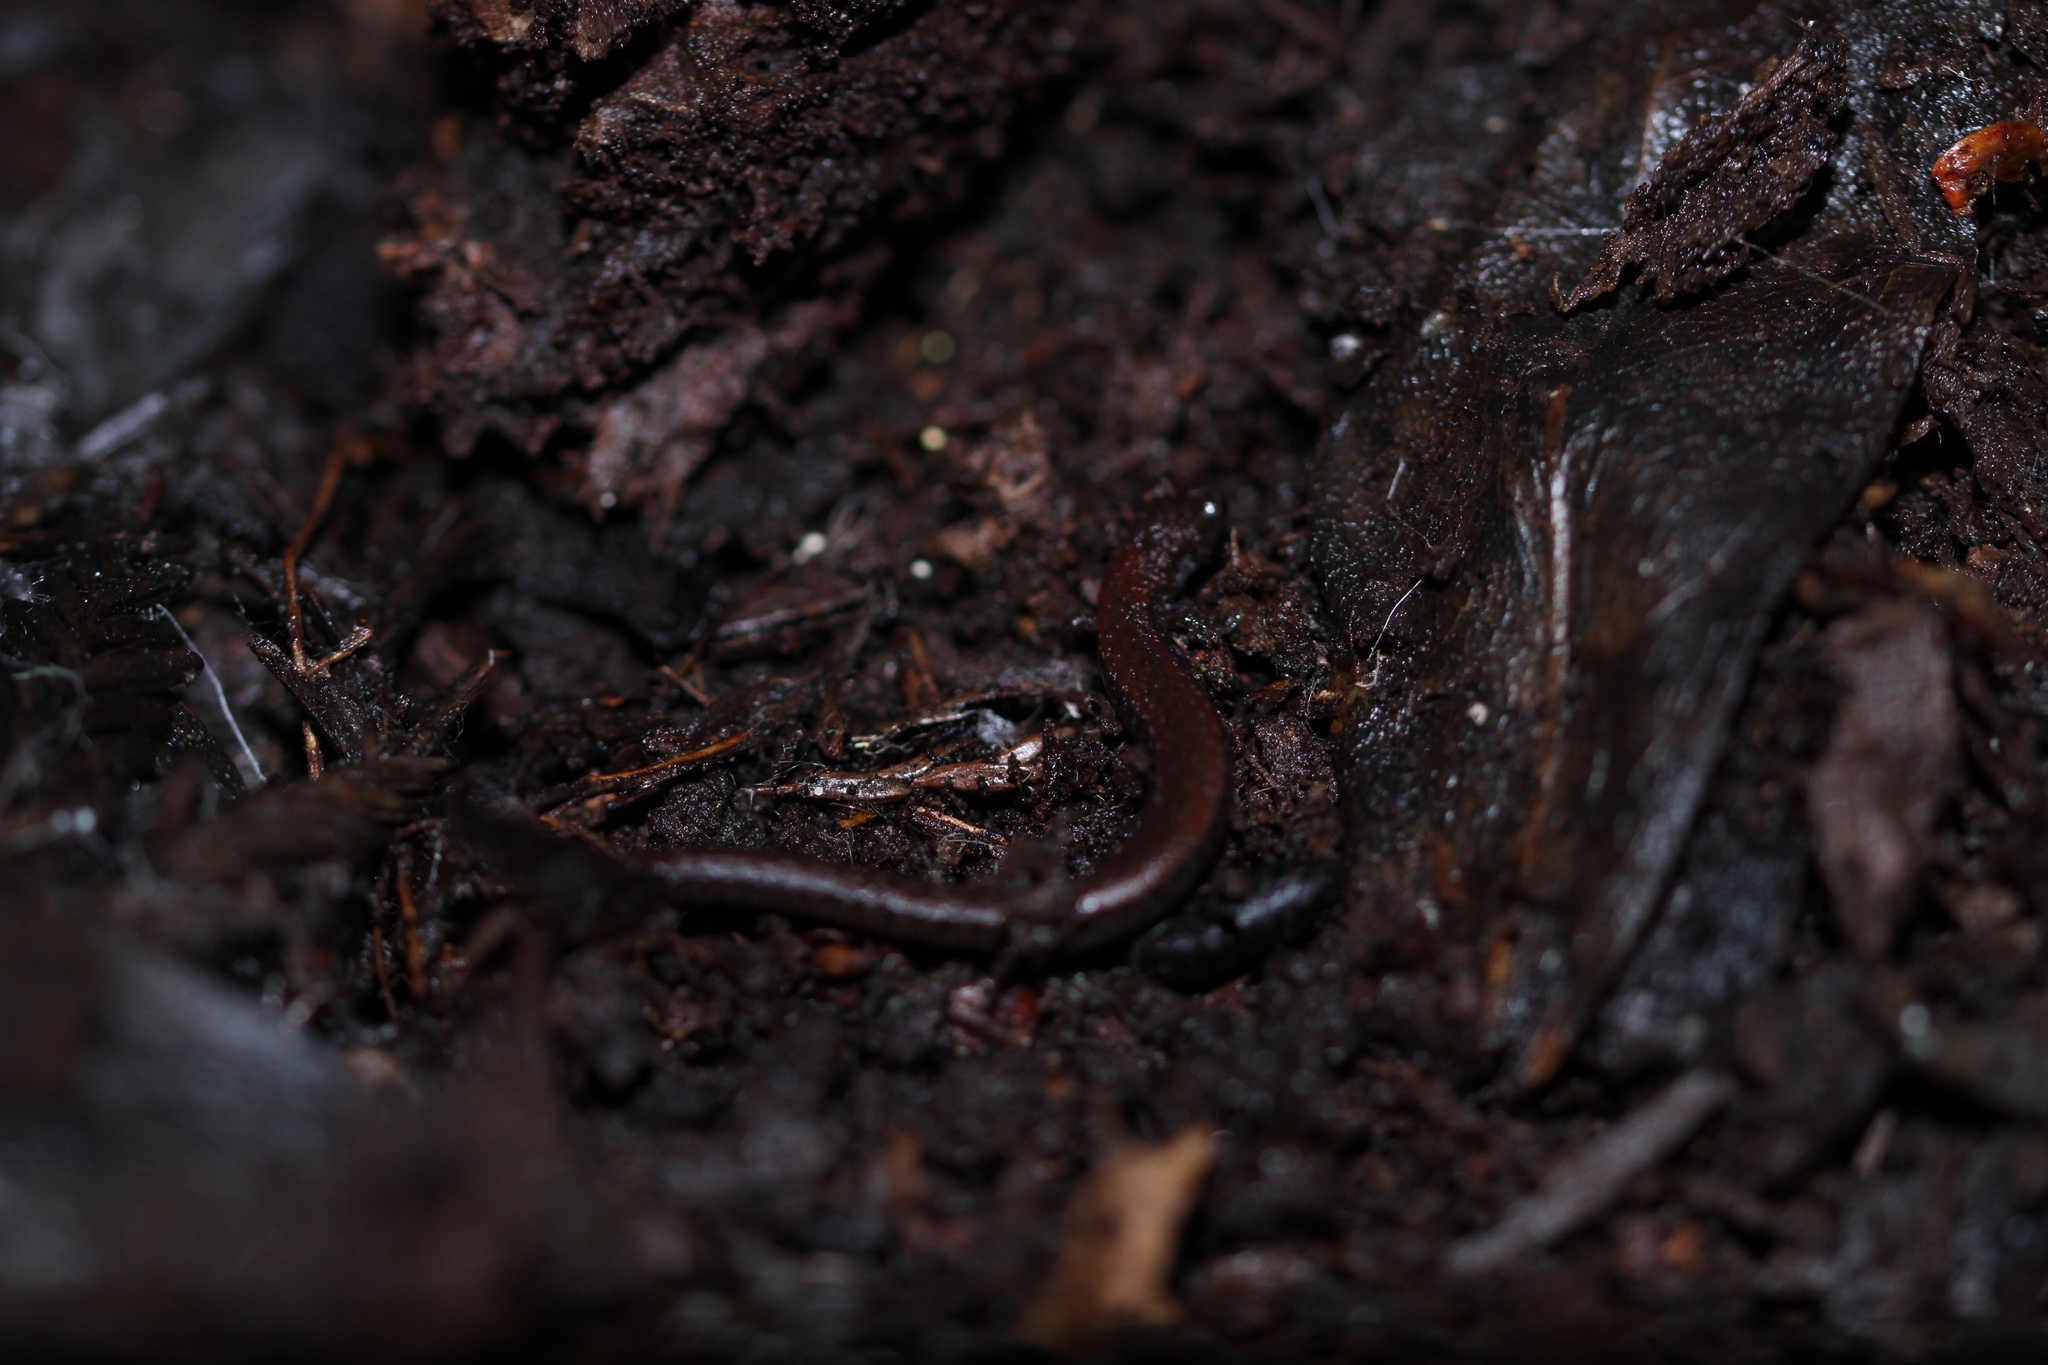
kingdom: Animalia
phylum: Chordata
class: Amphibia
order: Caudata
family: Plethodontidae
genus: Batrachoseps
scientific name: Batrachoseps attenuatus
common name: California slender salamander
